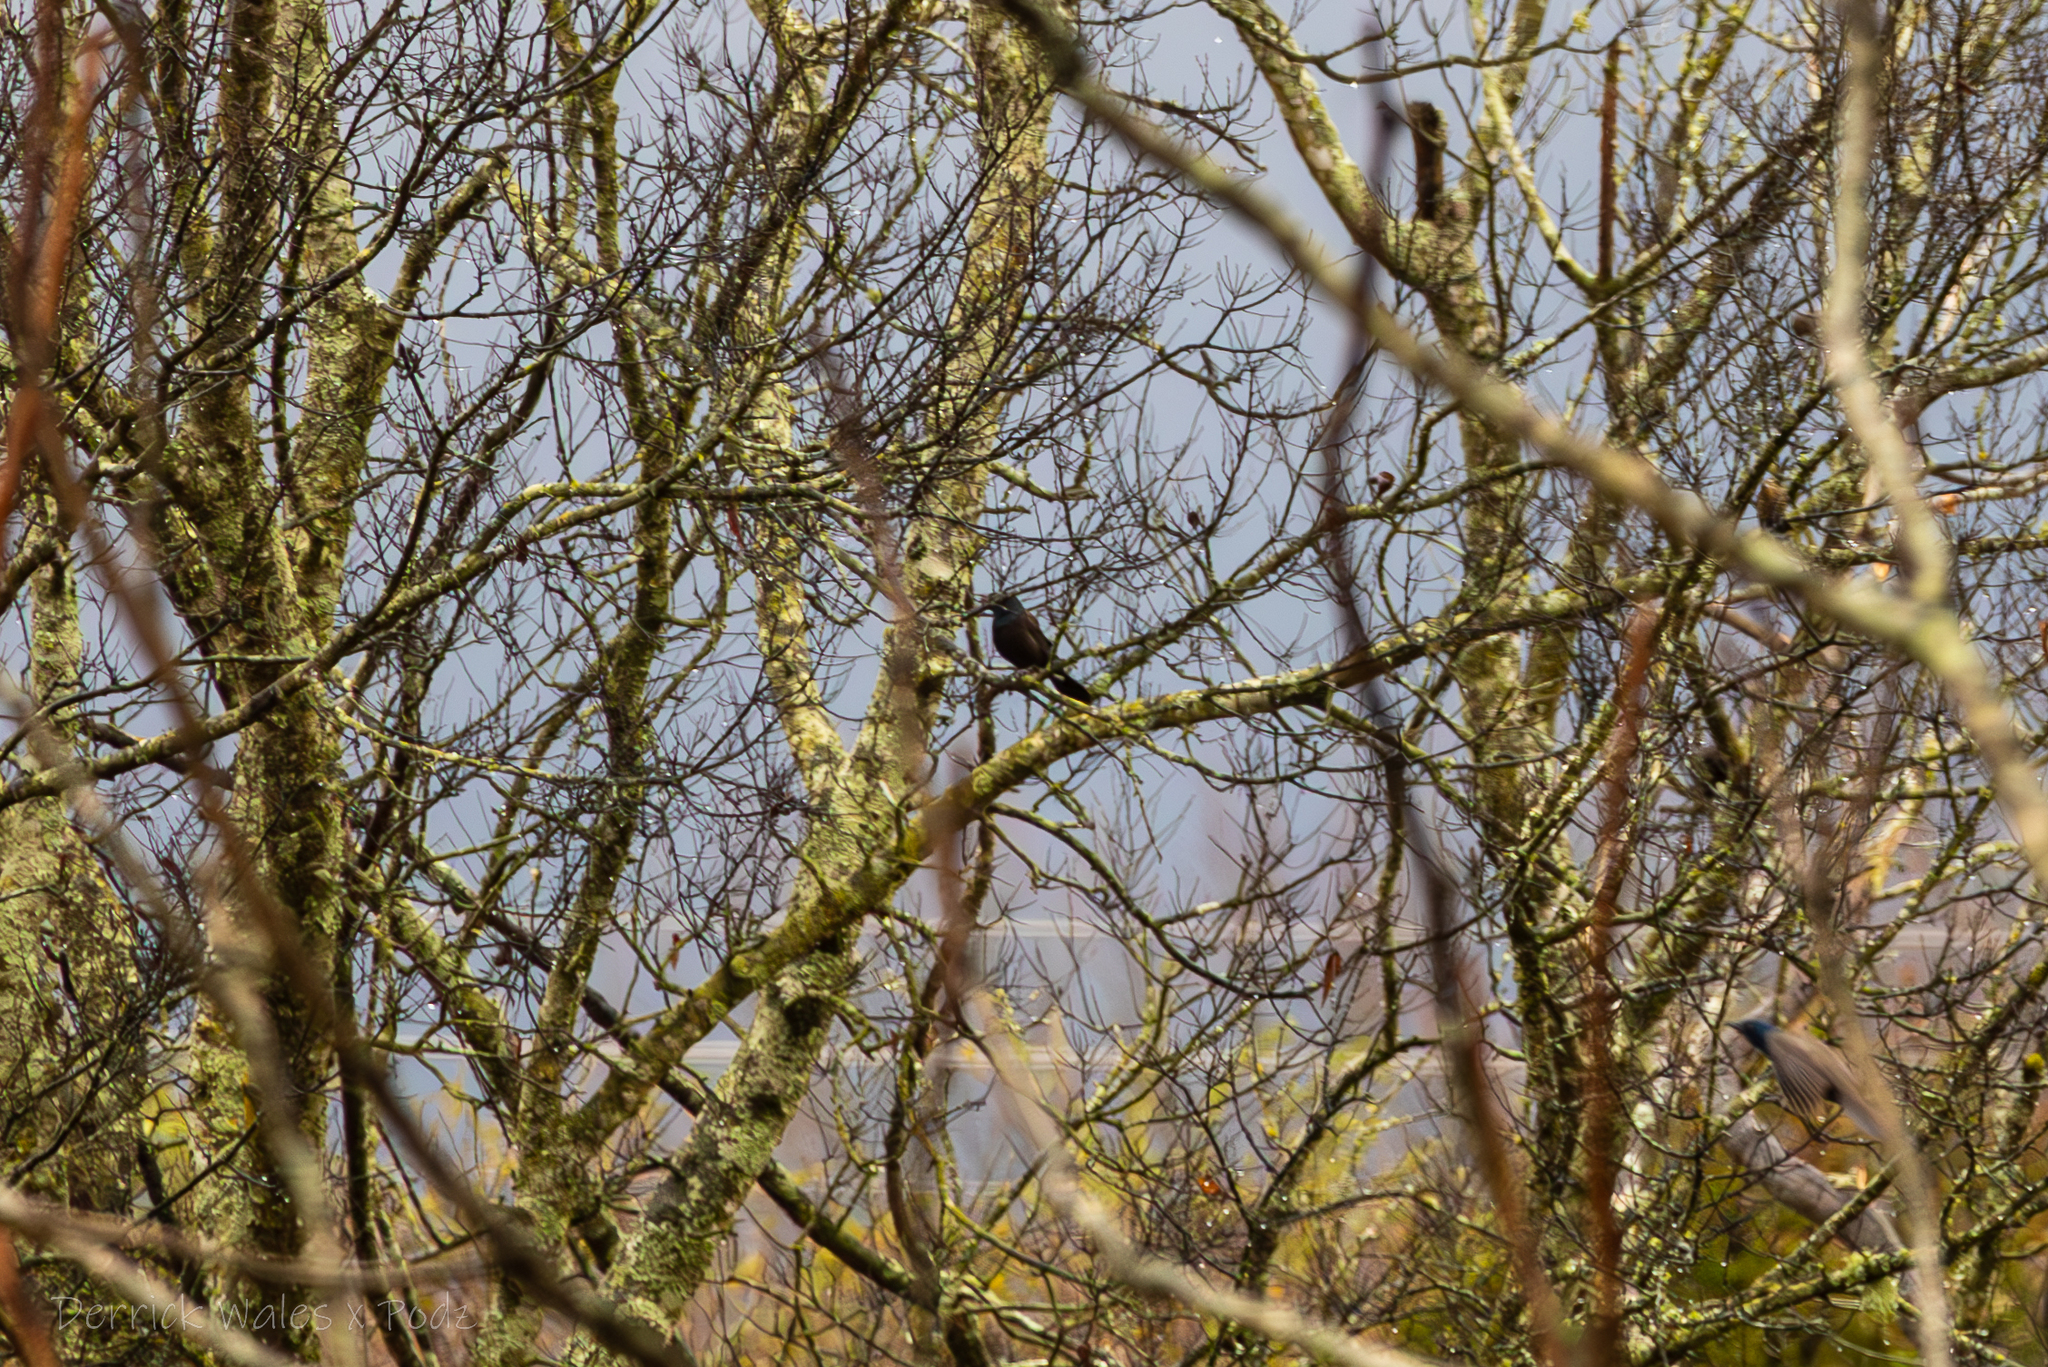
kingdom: Animalia
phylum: Chordata
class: Aves
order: Passeriformes
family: Icteridae
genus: Quiscalus
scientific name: Quiscalus quiscula
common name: Common grackle
